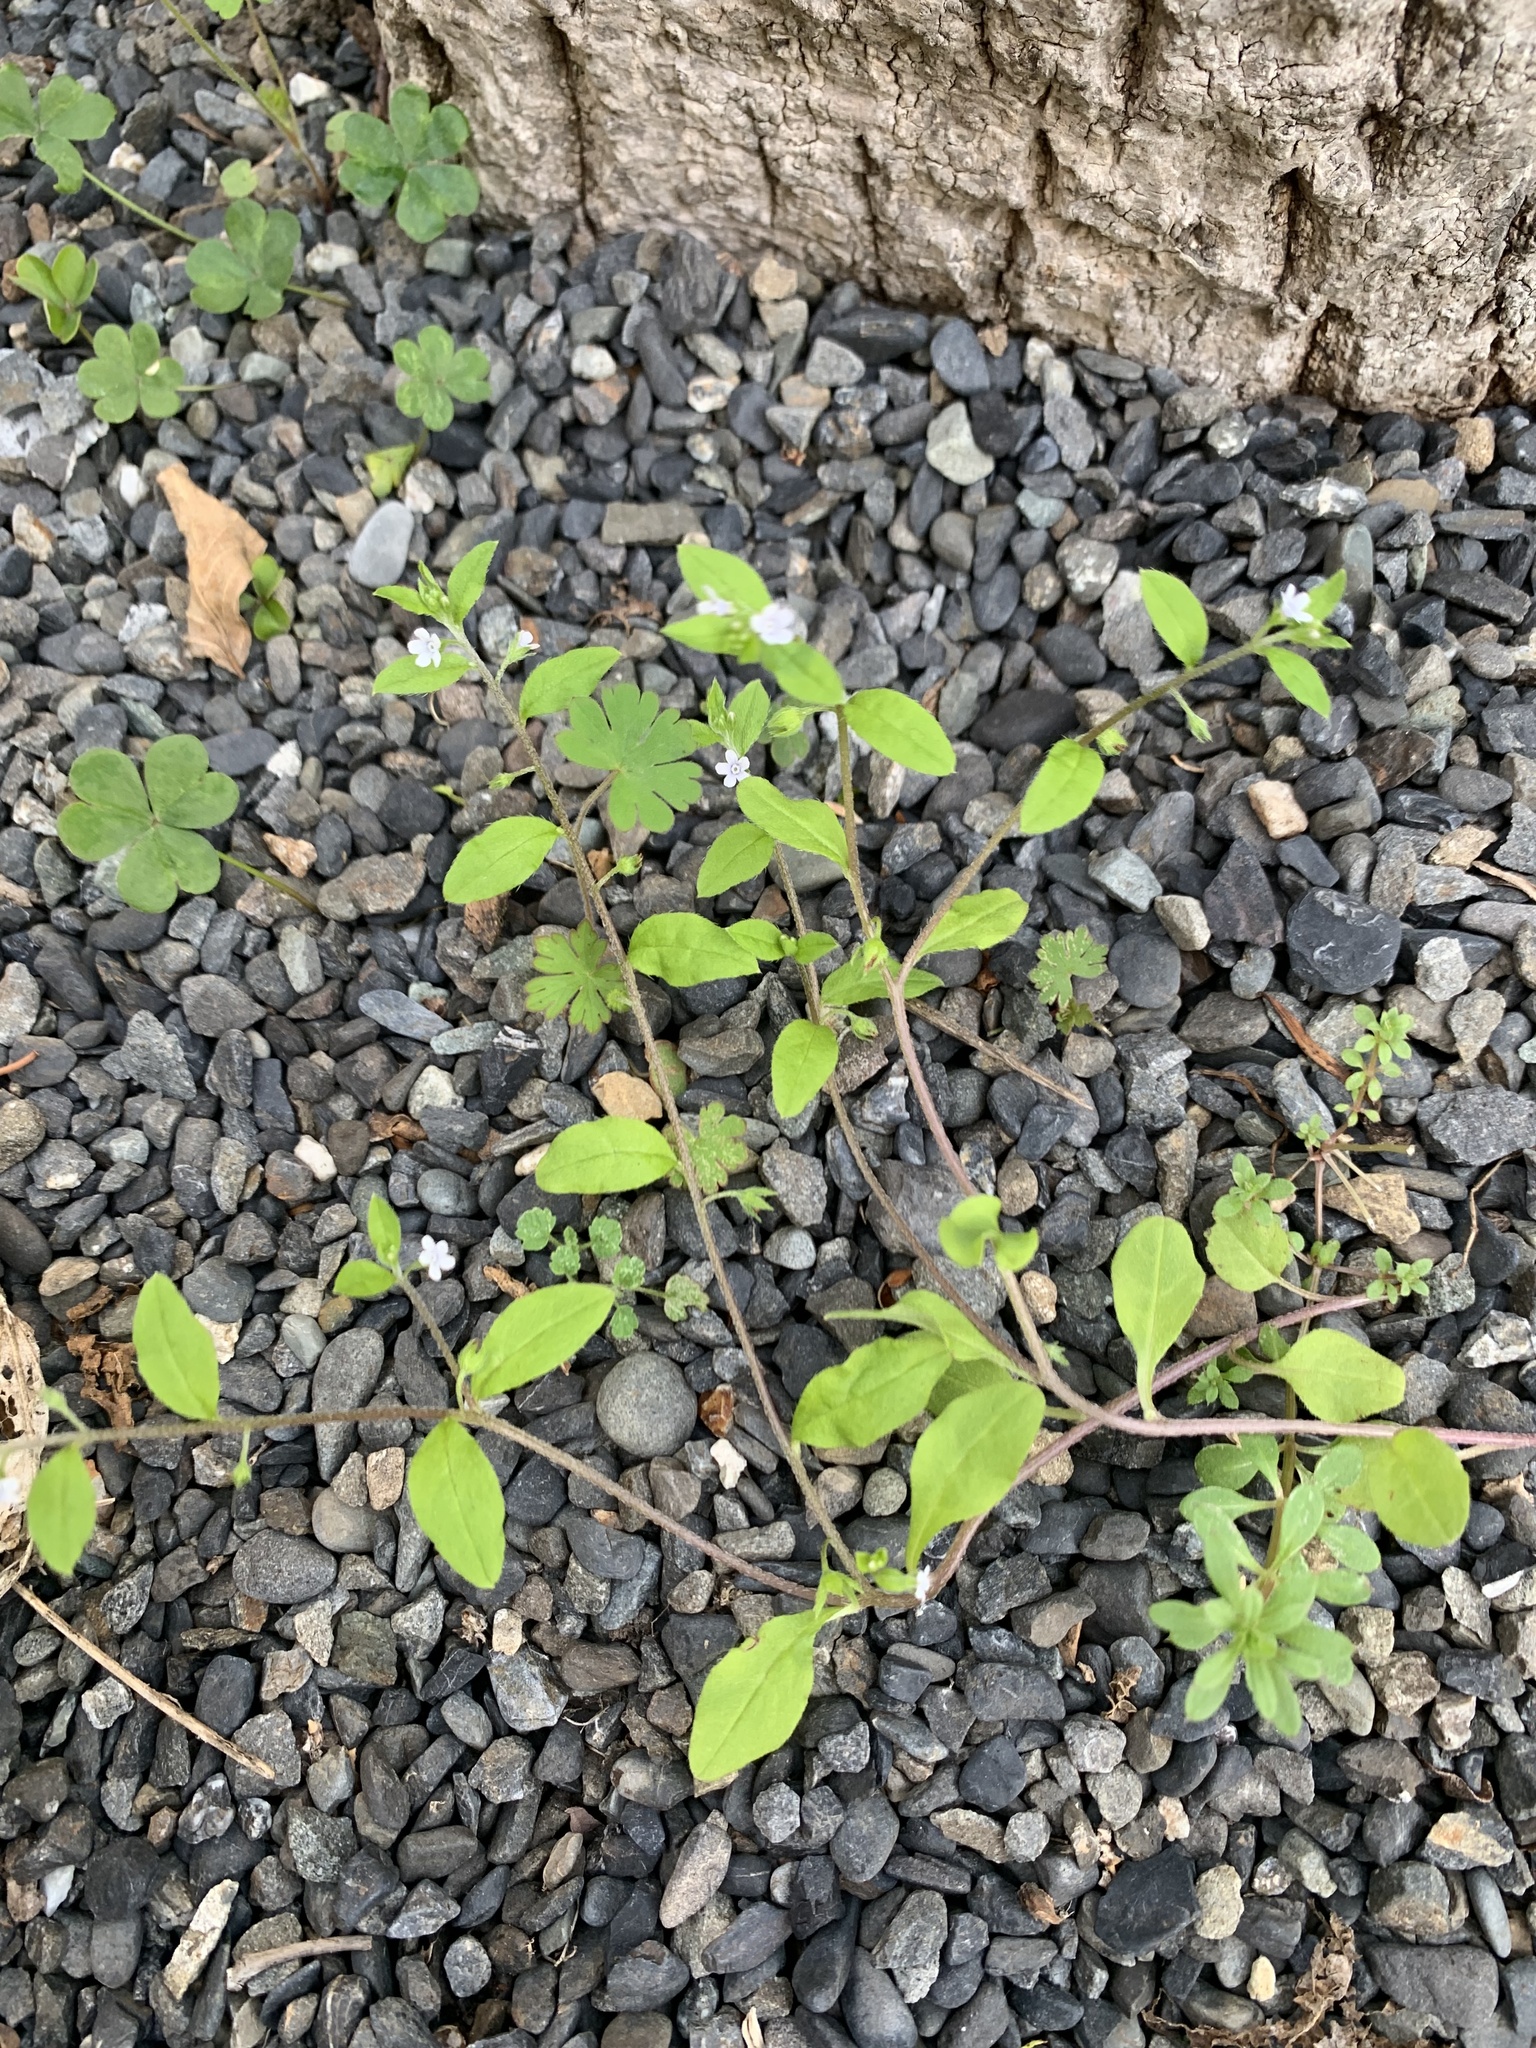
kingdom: Plantae
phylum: Tracheophyta
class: Magnoliopsida
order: Boraginales
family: Boraginaceae
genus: Bothriospermum
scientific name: Bothriospermum zeylanicum
